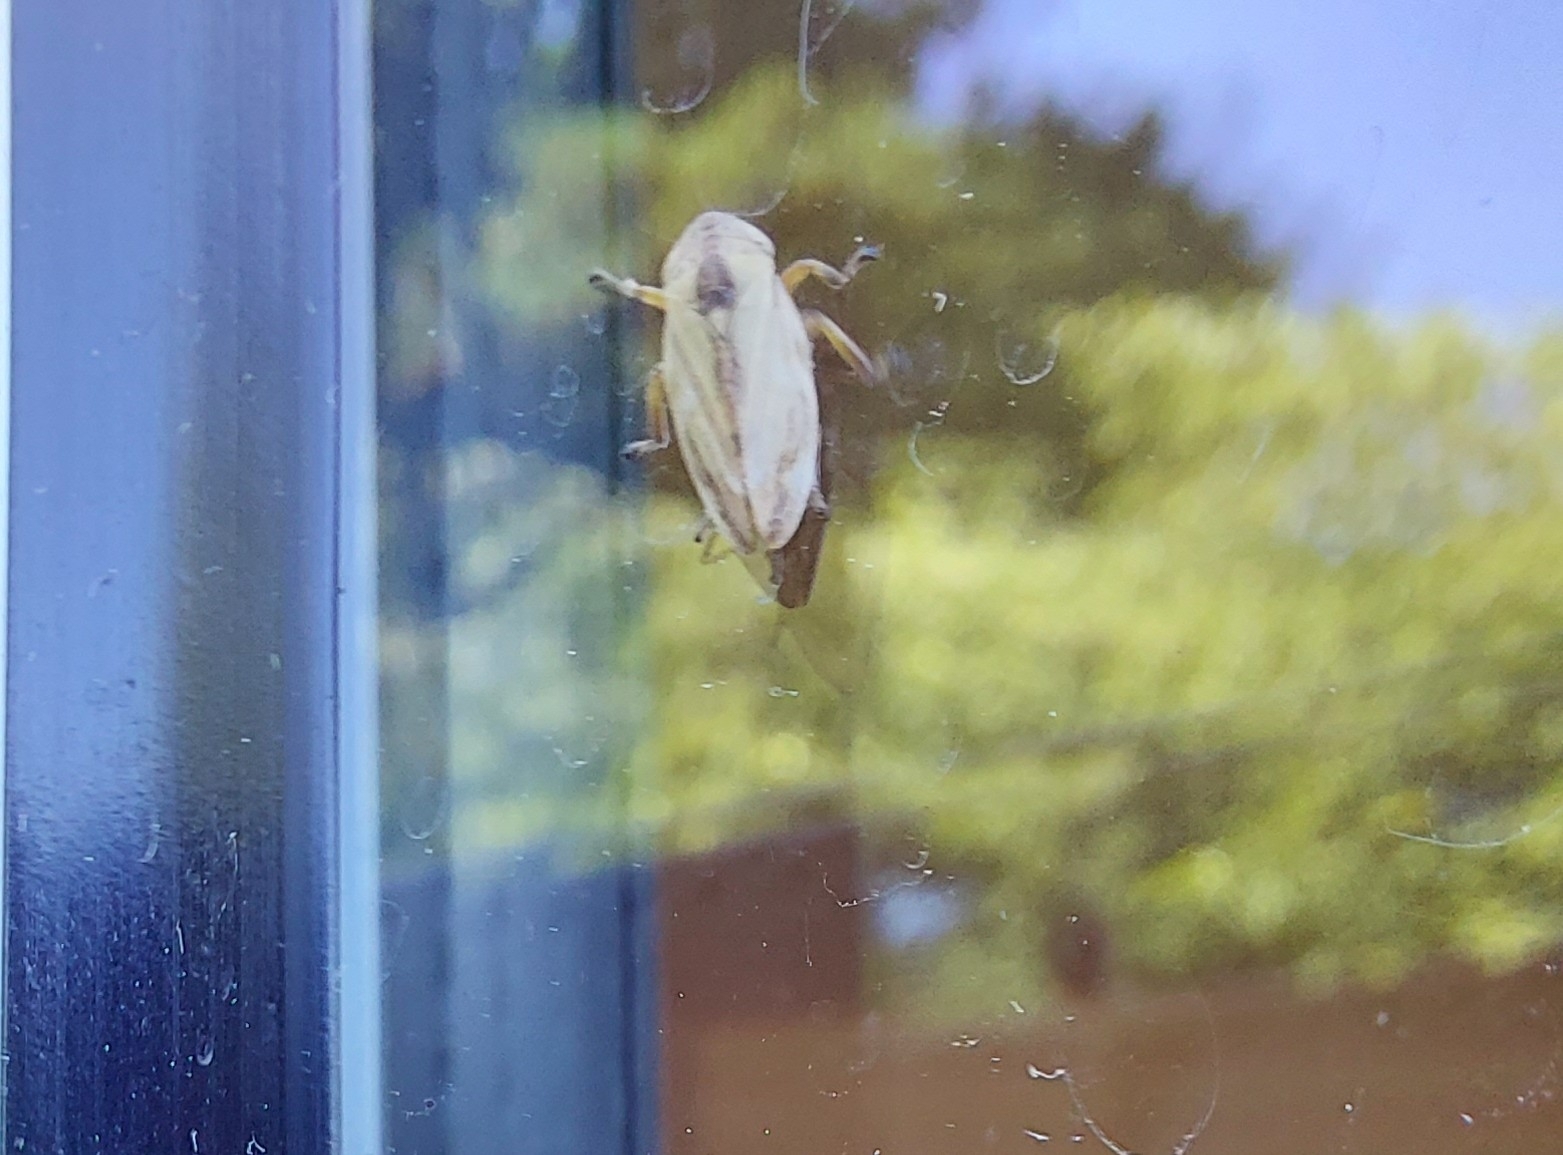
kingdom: Animalia
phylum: Arthropoda
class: Insecta
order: Hemiptera
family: Aphrophoridae
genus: Philaenus
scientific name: Philaenus spumarius
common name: Meadow spittlebug
